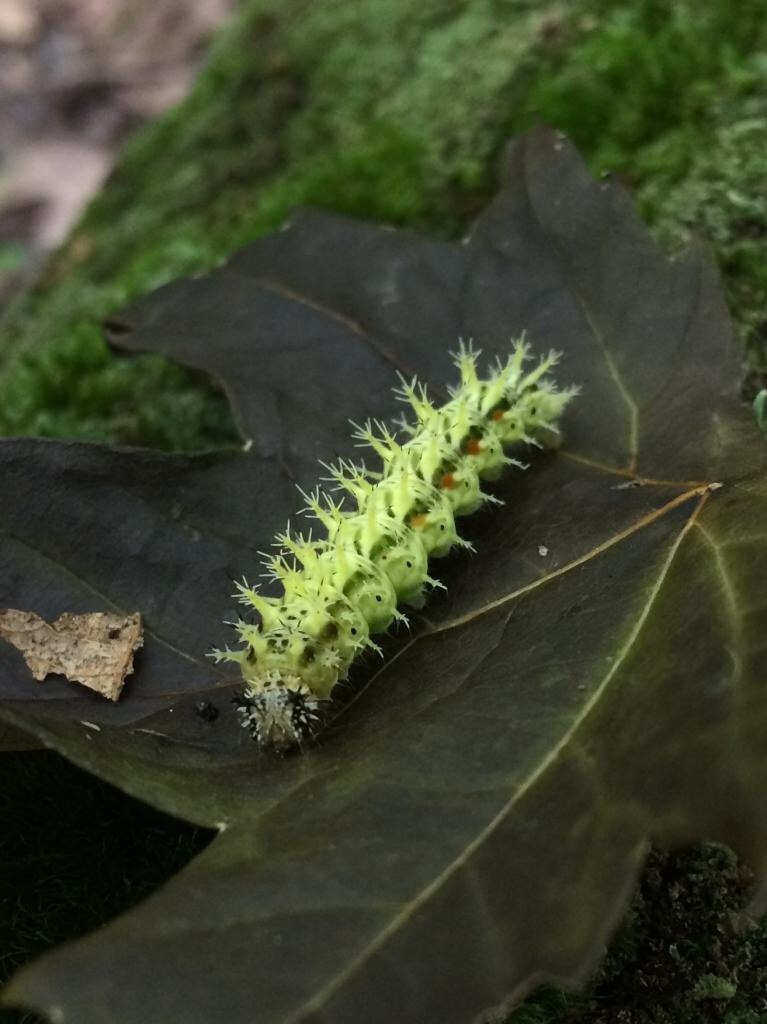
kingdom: Animalia
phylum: Arthropoda
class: Insecta
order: Lepidoptera
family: Nymphalidae
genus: Polygonia
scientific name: Polygonia comma
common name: Eastern comma
